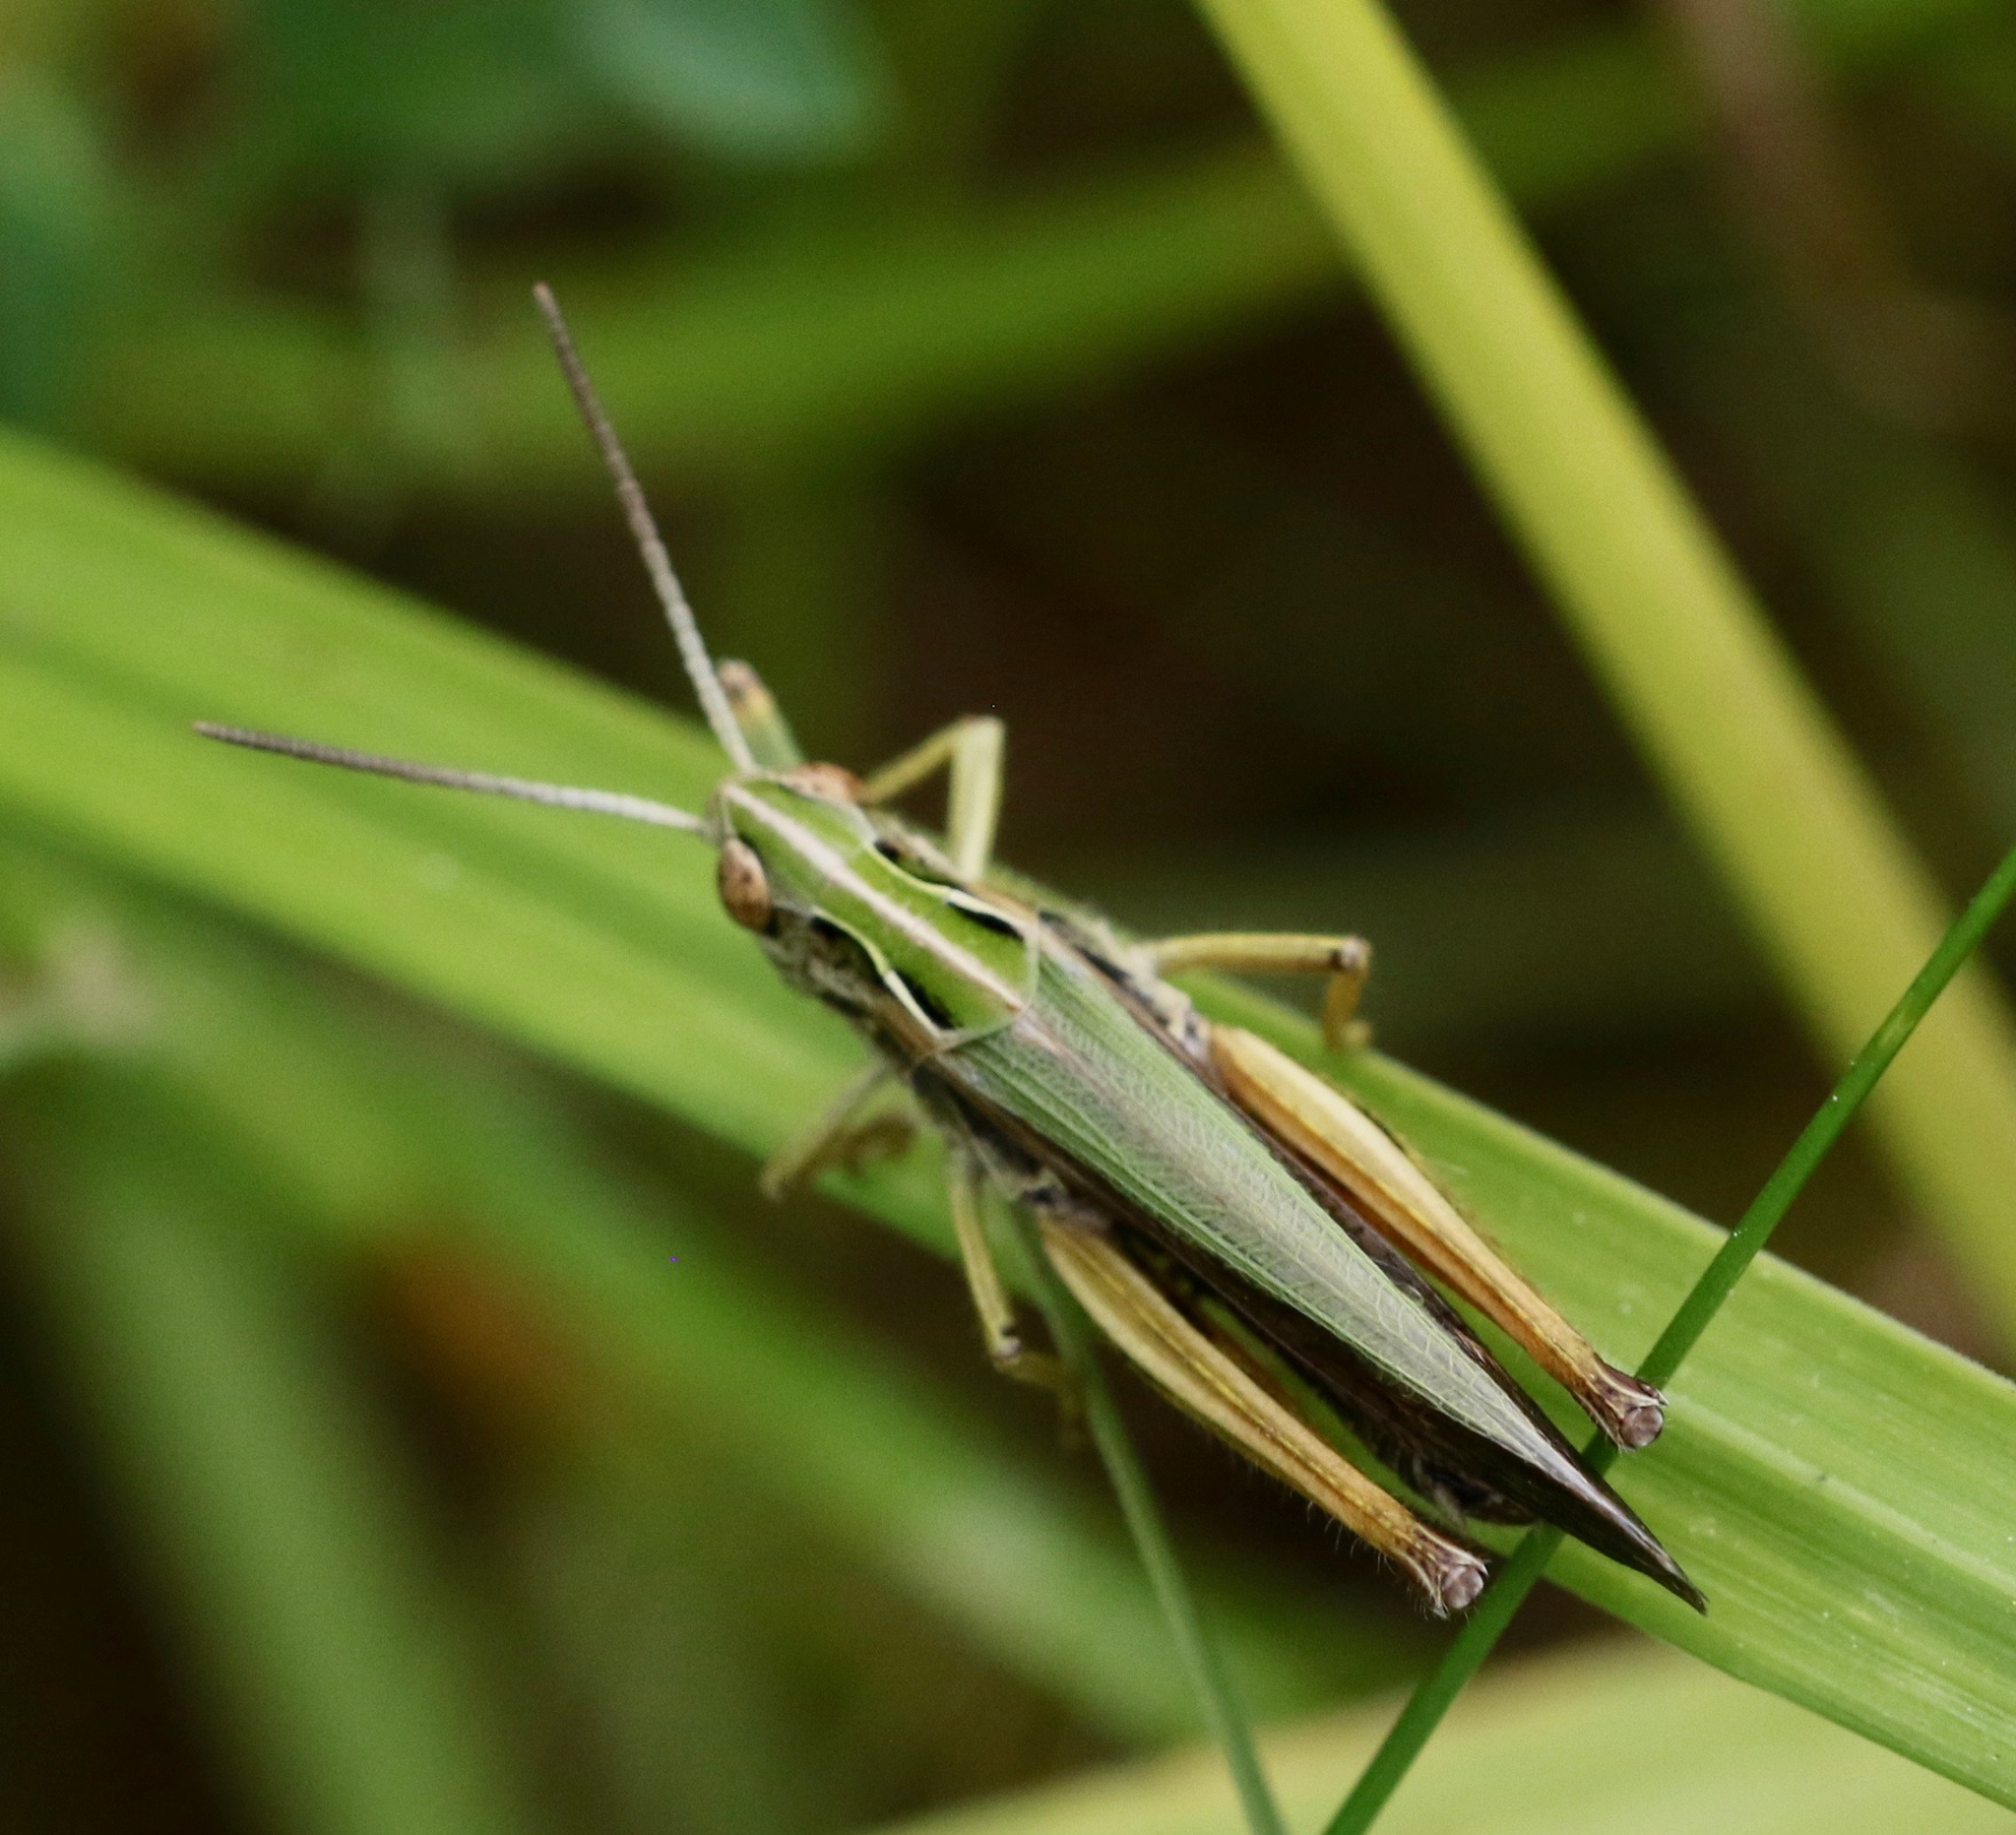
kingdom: Animalia
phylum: Arthropoda
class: Insecta
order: Orthoptera
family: Acrididae
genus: Omocestus
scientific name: Omocestus viridulus
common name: Common green grasshopper
